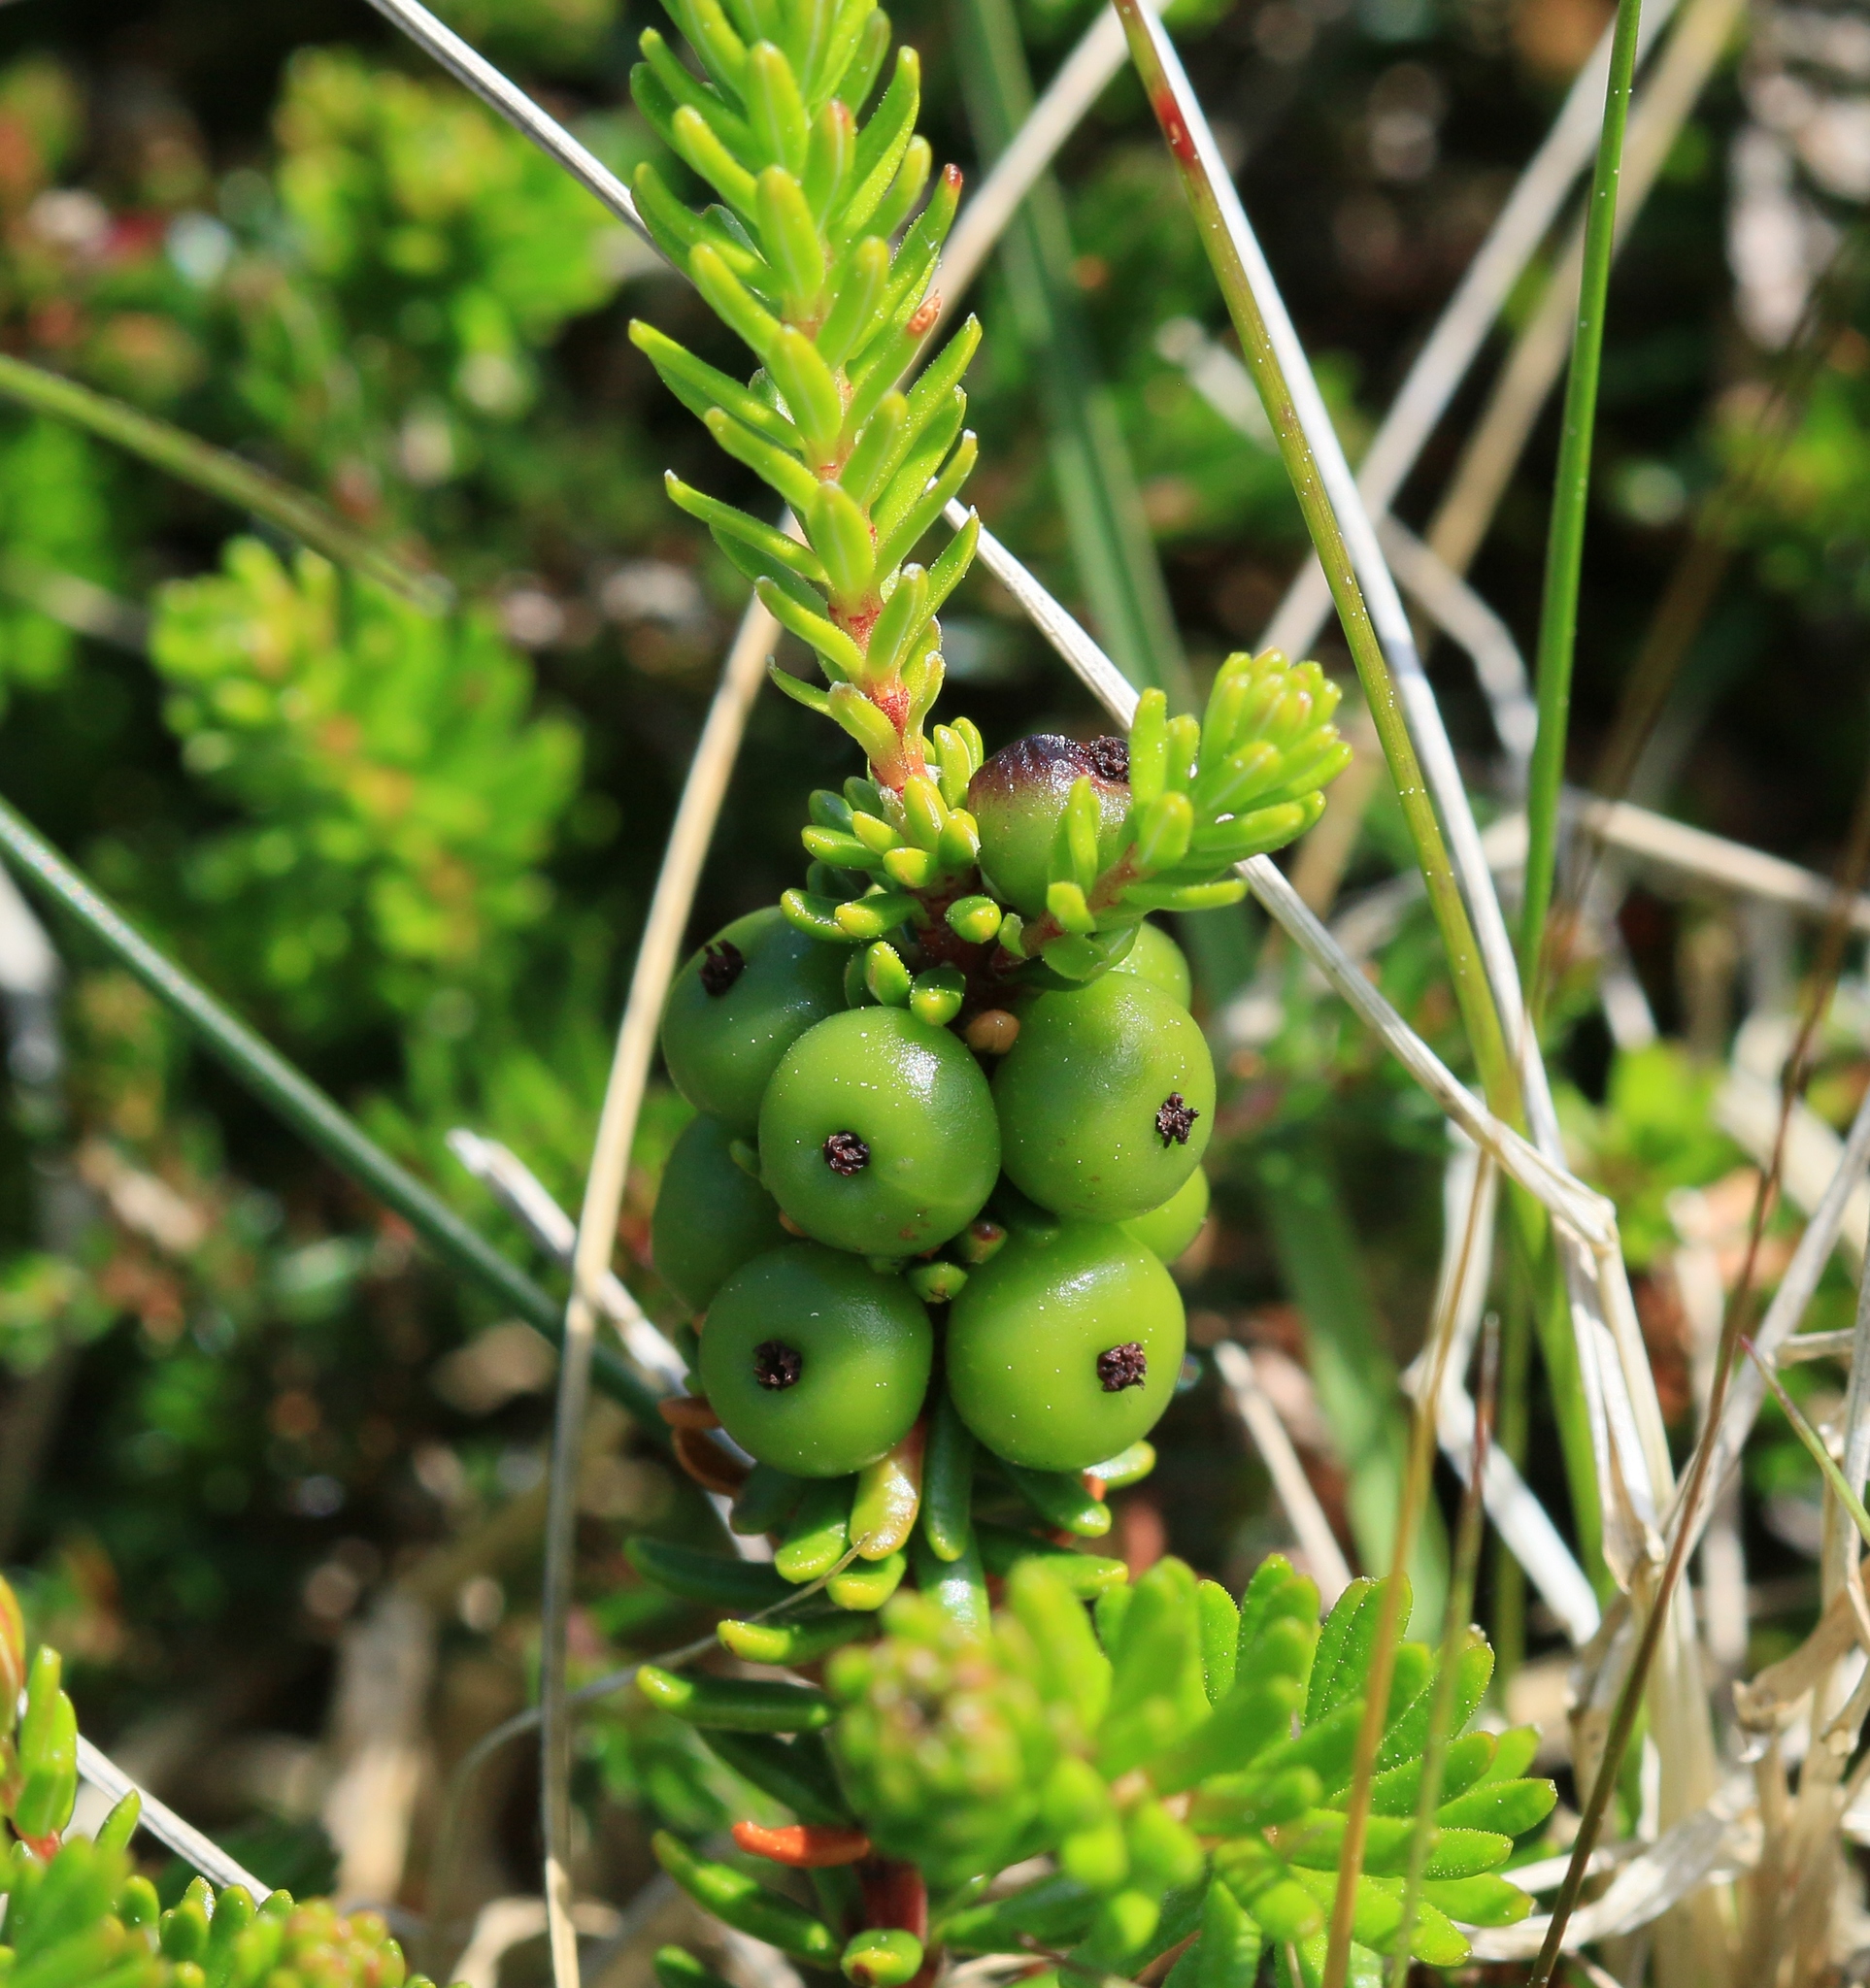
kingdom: Plantae
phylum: Tracheophyta
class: Magnoliopsida
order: Ericales
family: Ericaceae
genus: Empetrum
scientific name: Empetrum nigrum
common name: Black crowberry
